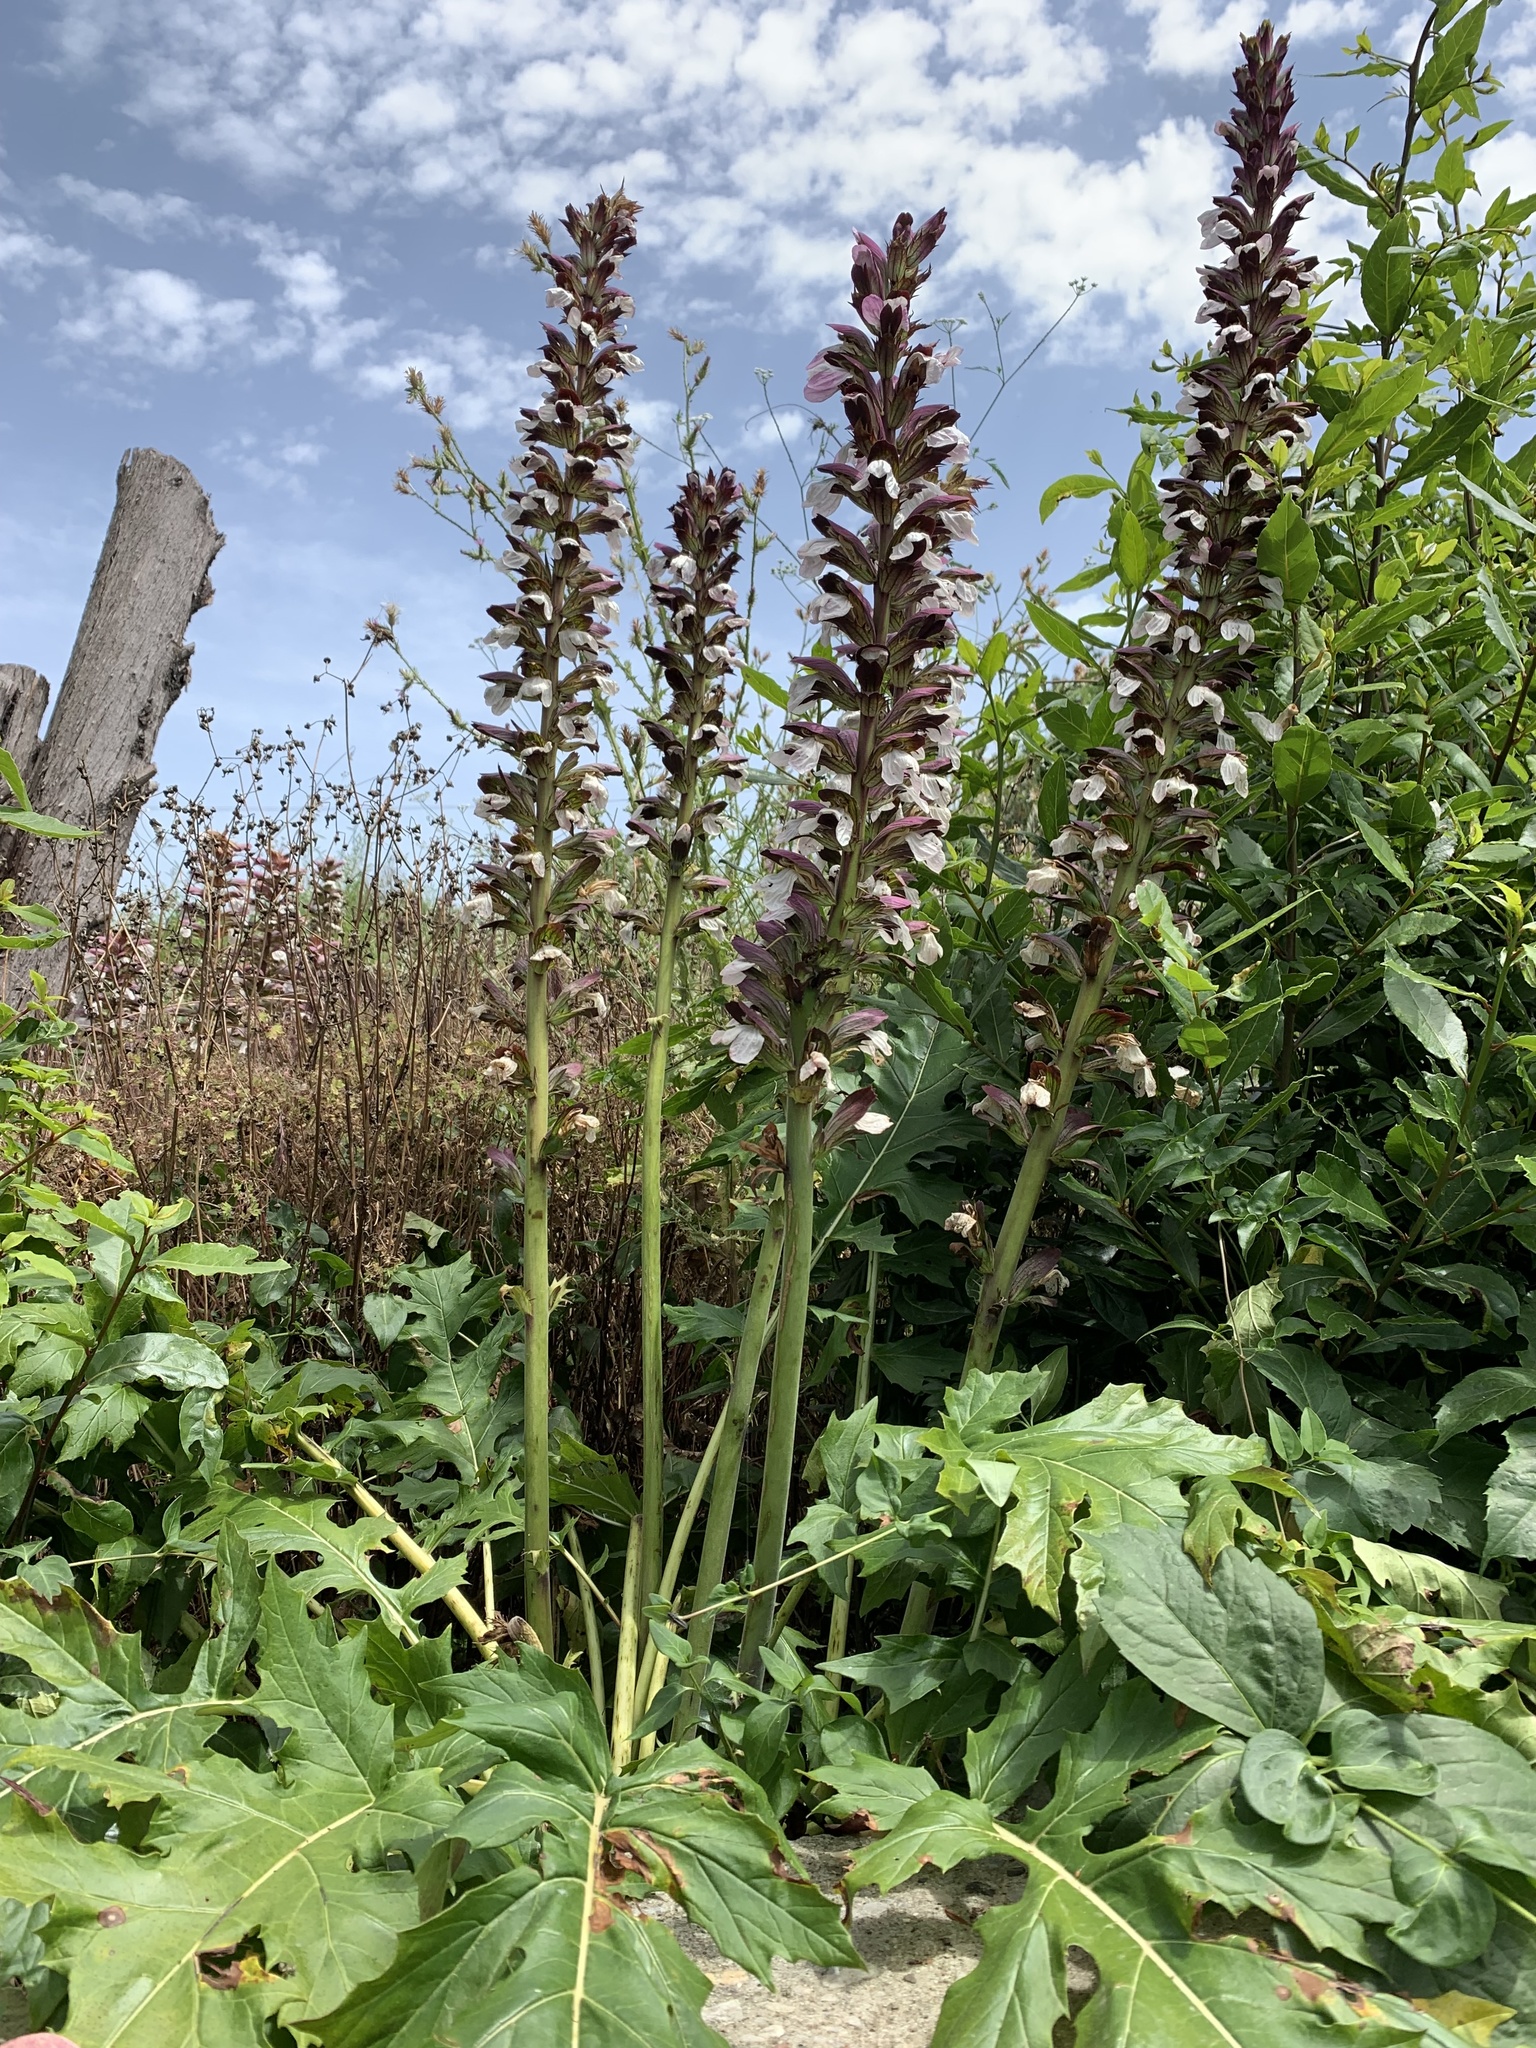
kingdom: Plantae
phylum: Tracheophyta
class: Magnoliopsida
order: Lamiales
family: Acanthaceae
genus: Acanthus
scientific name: Acanthus mollis
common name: Bear's-breech
